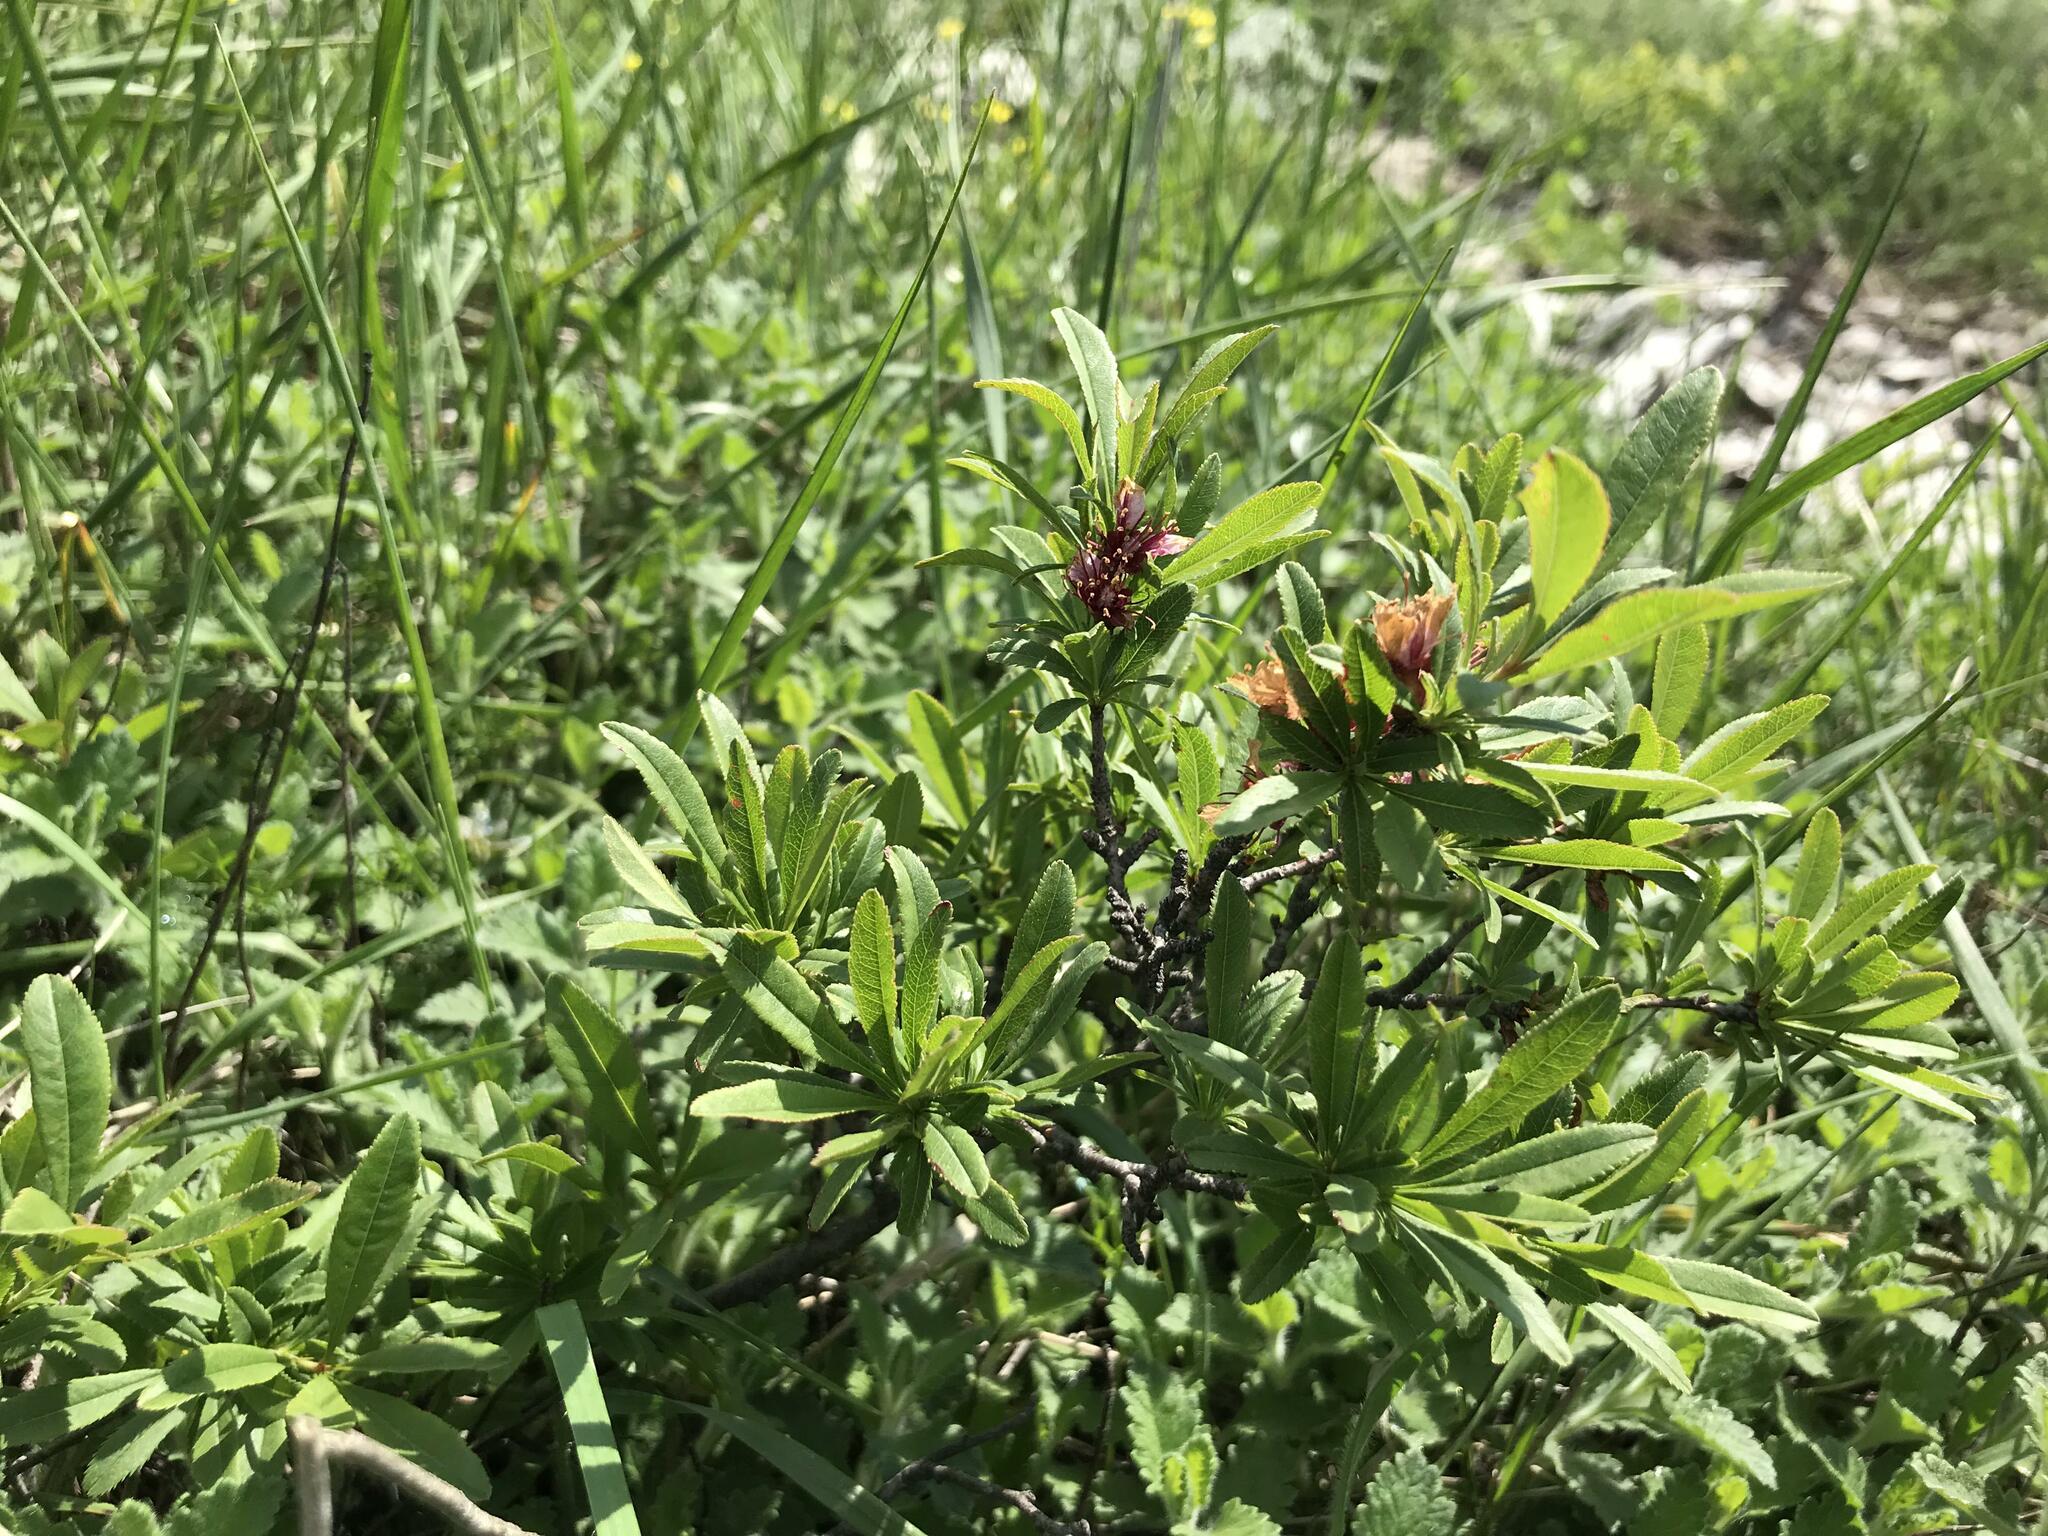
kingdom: Plantae
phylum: Tracheophyta
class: Magnoliopsida
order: Rosales
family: Rosaceae
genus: Prunus
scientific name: Prunus tenella
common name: Dwarf russian almond
